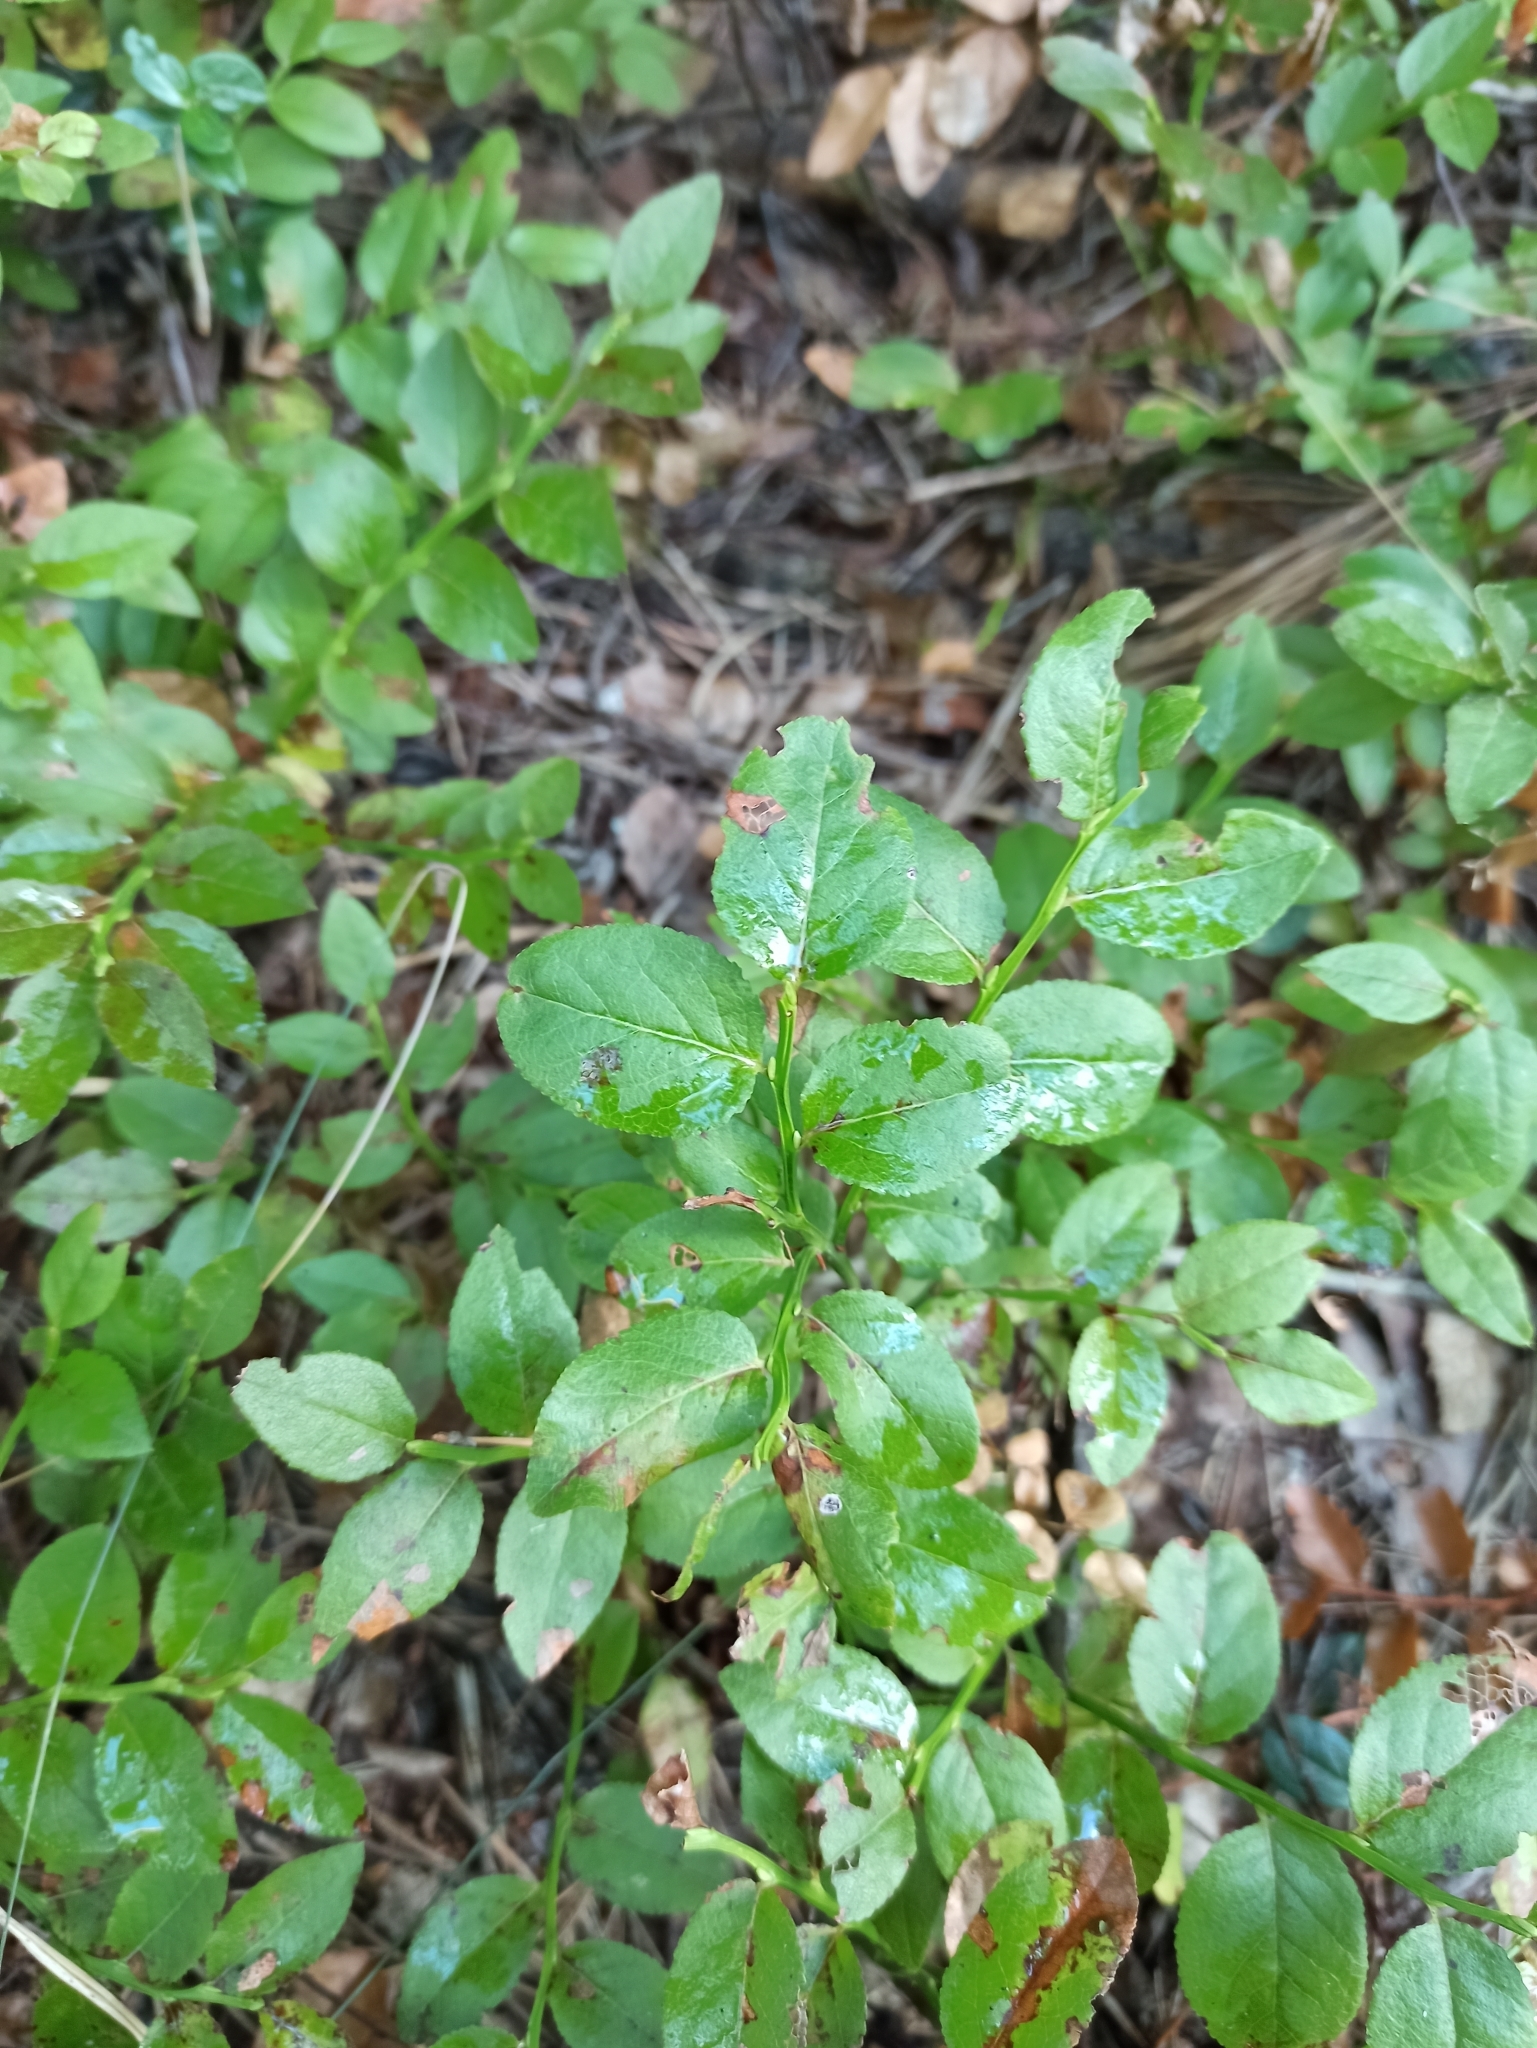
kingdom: Plantae
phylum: Tracheophyta
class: Magnoliopsida
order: Ericales
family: Ericaceae
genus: Vaccinium
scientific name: Vaccinium myrtillus
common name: Bilberry
